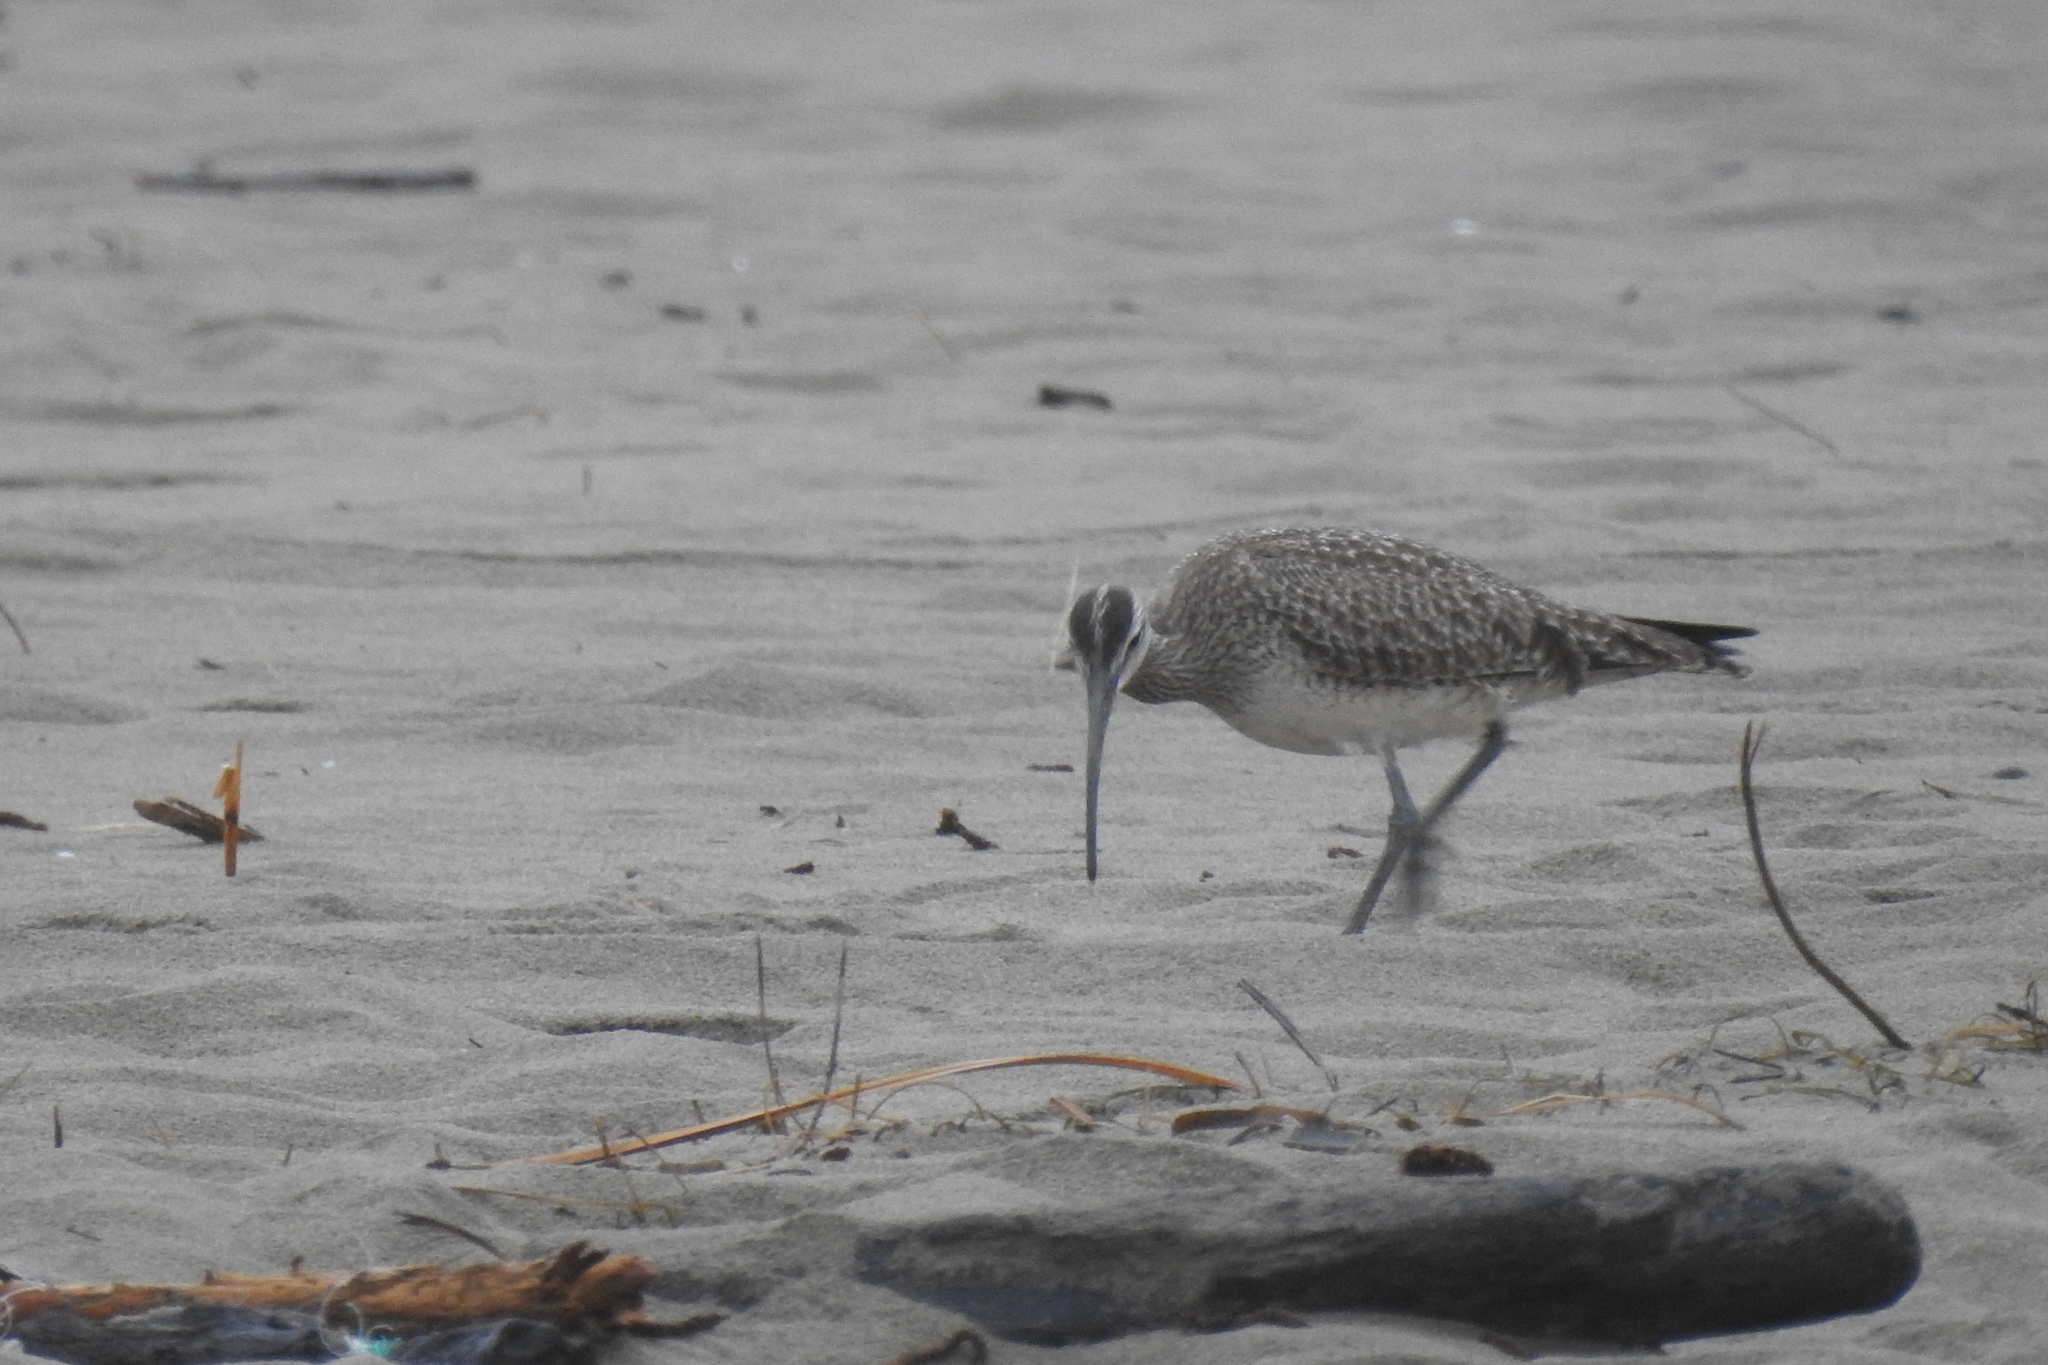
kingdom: Animalia
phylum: Chordata
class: Aves
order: Charadriiformes
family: Scolopacidae
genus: Numenius
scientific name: Numenius phaeopus
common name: Whimbrel
